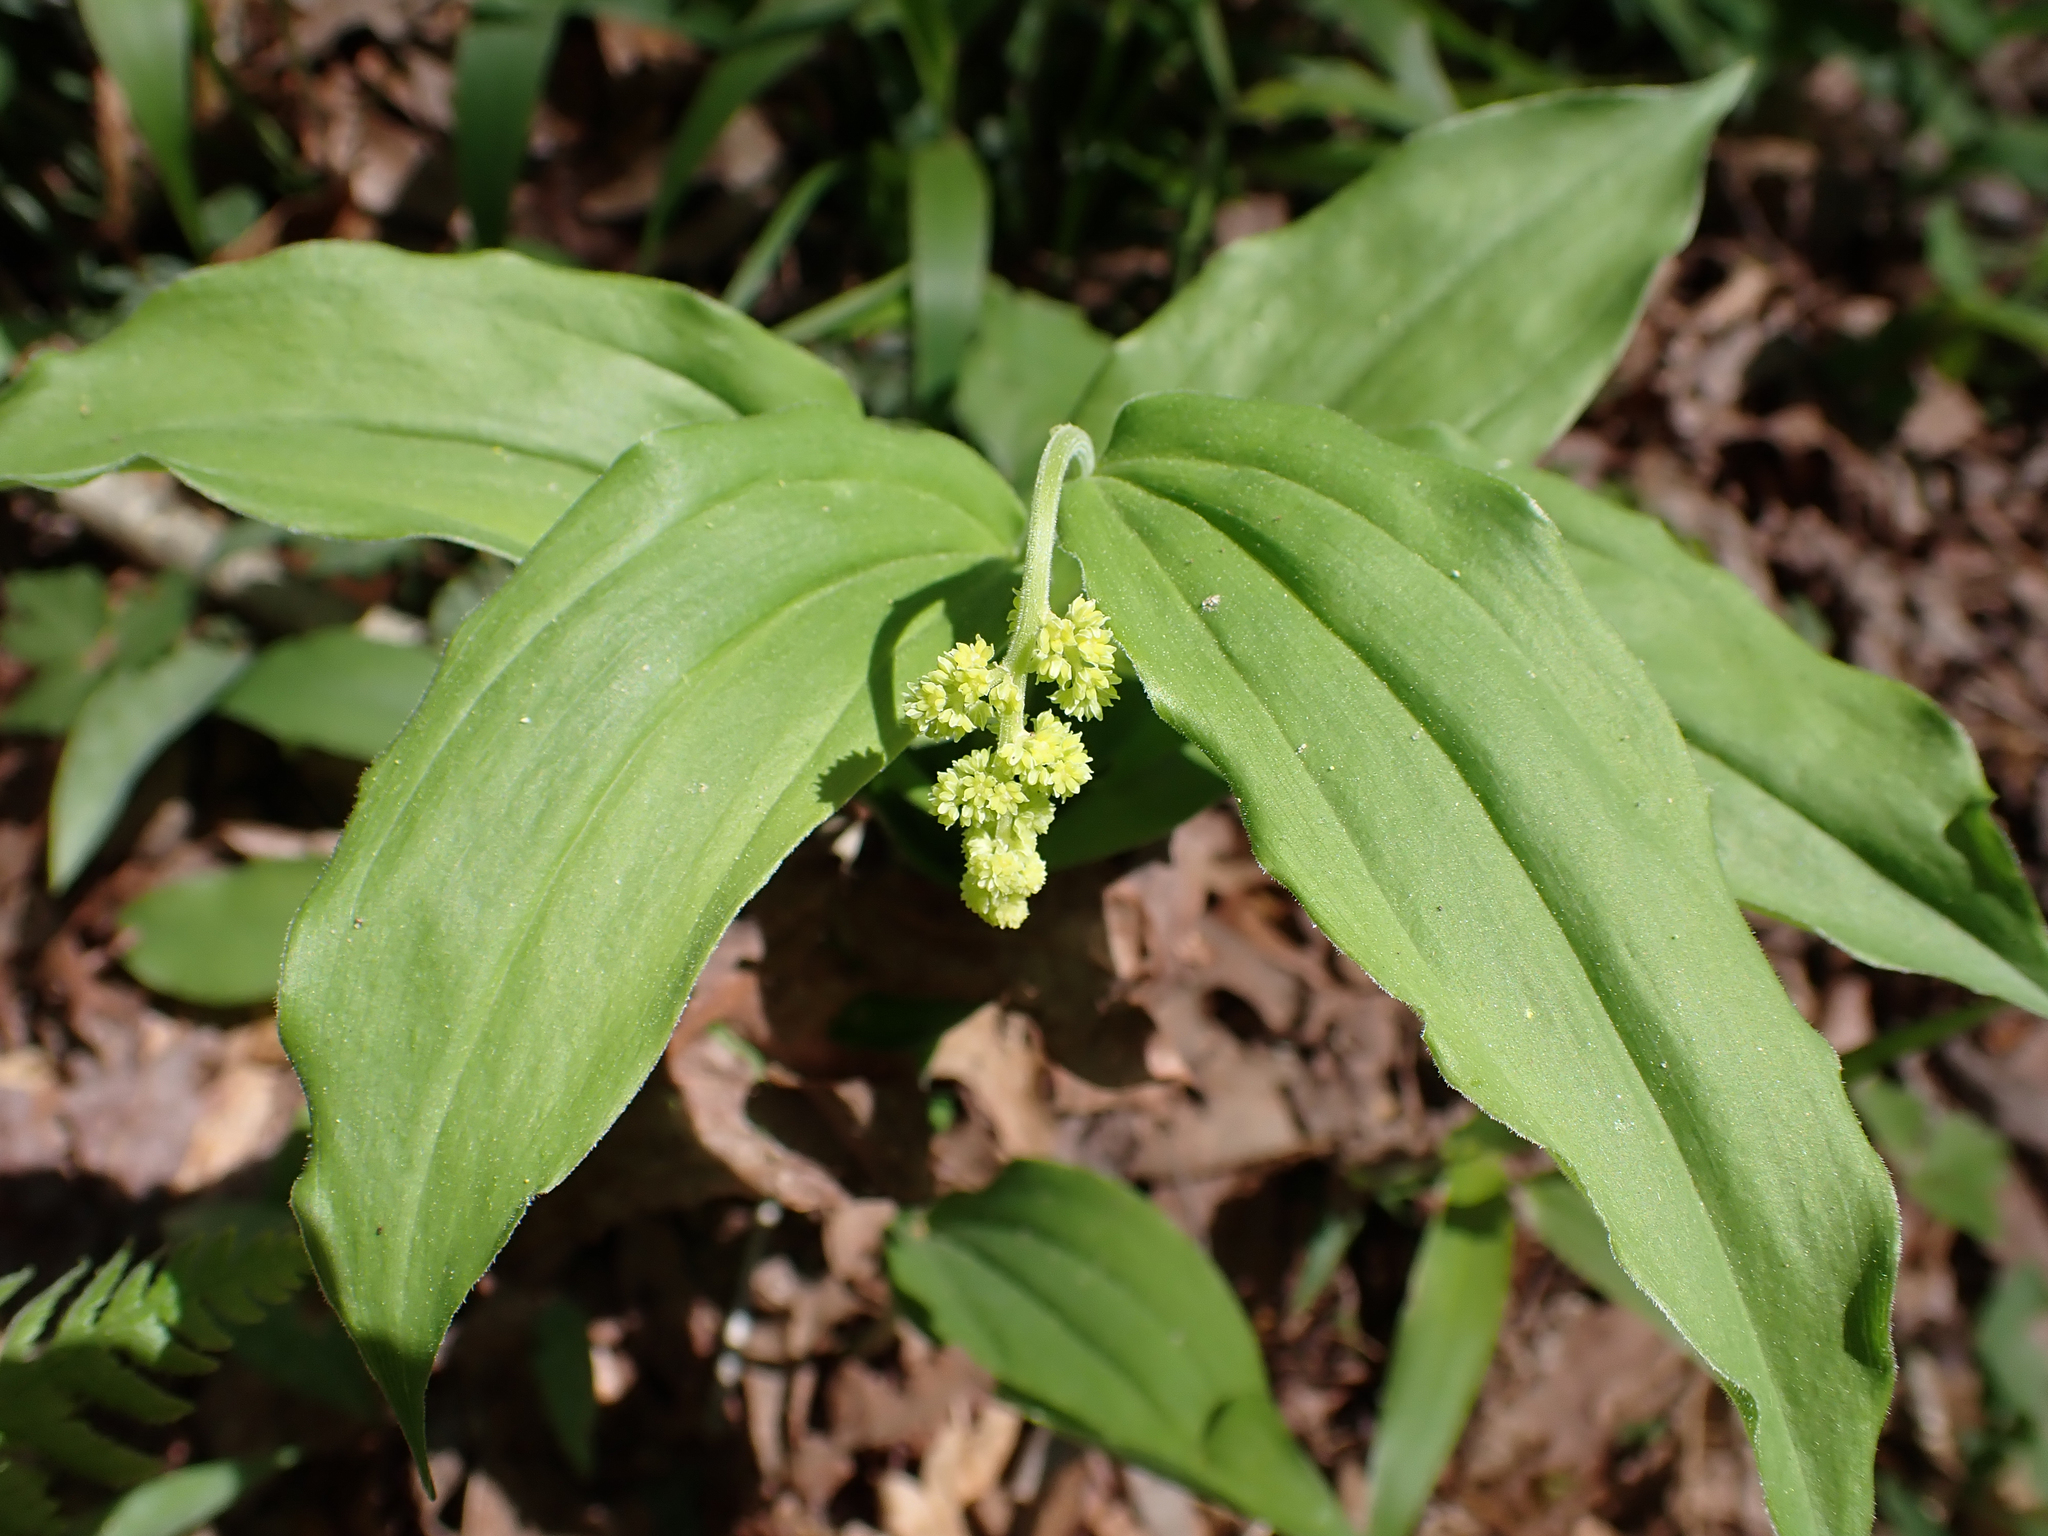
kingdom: Plantae
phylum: Tracheophyta
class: Liliopsida
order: Asparagales
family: Asparagaceae
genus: Maianthemum
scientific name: Maianthemum racemosum
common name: False spikenard
